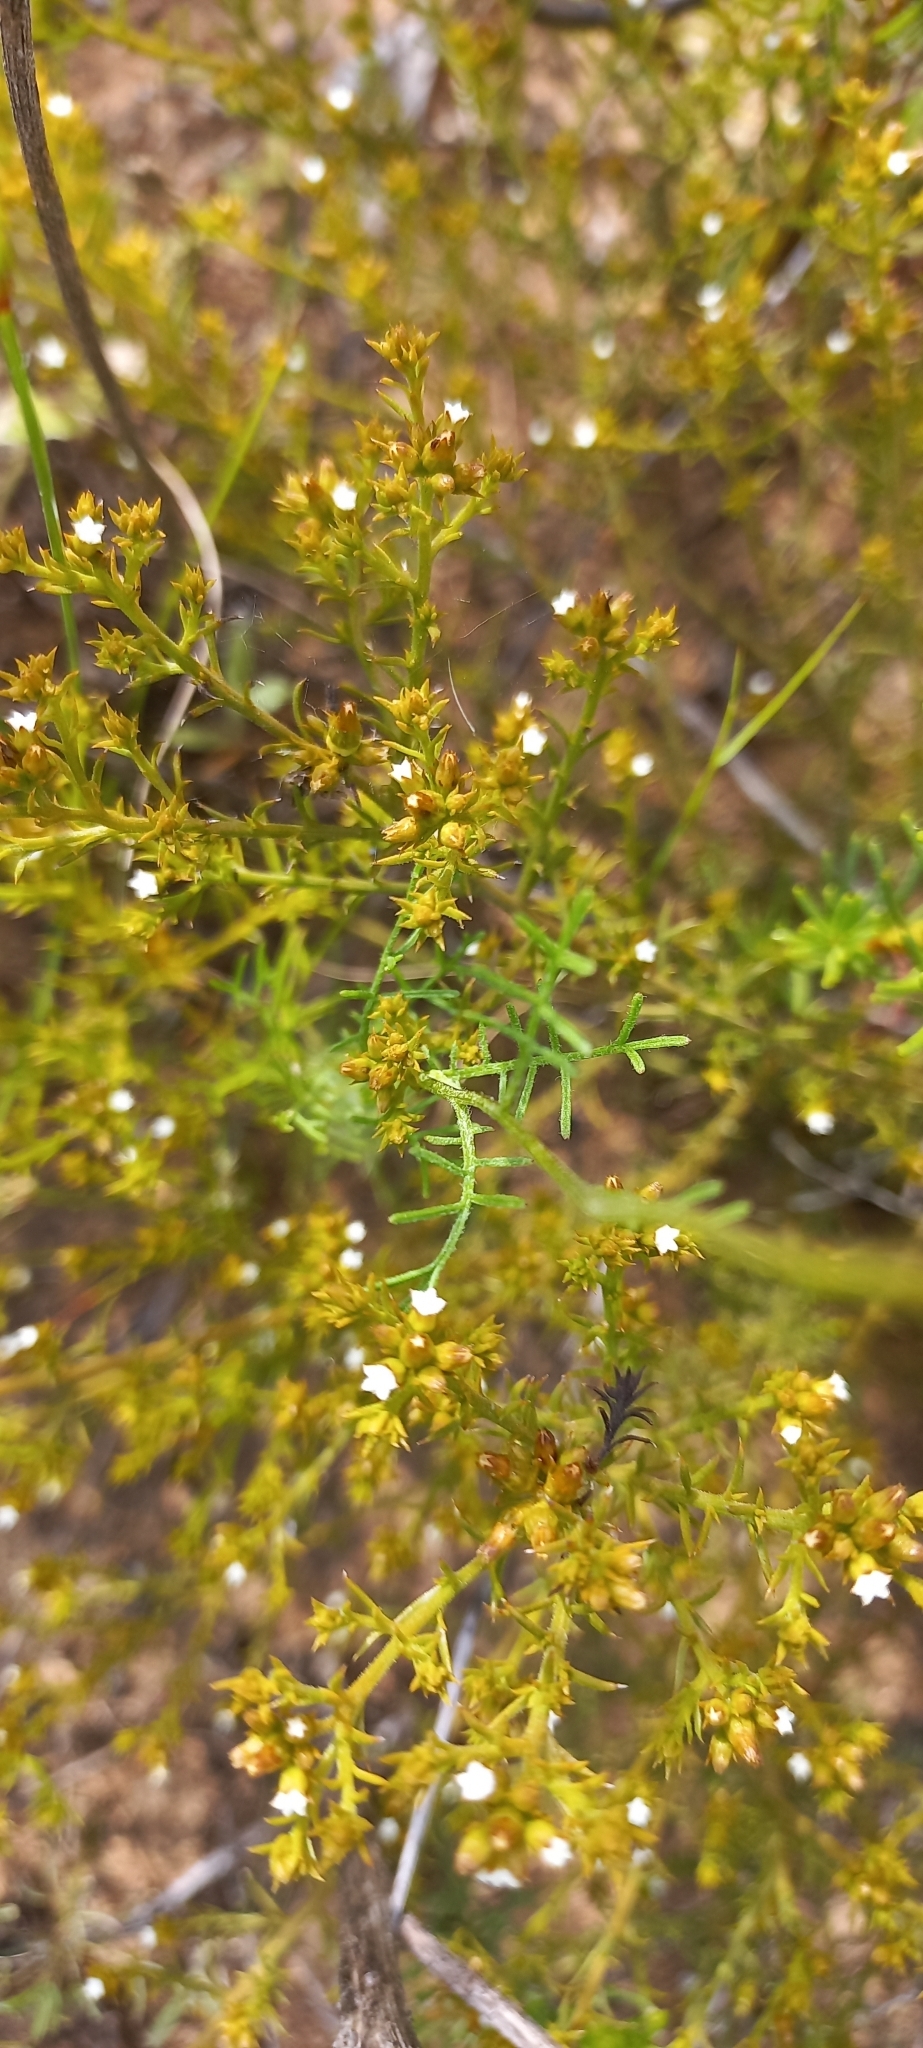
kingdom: Plantae
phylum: Tracheophyta
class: Magnoliopsida
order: Santalales
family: Thesiaceae
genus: Thesium
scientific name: Thesium hispidulum
